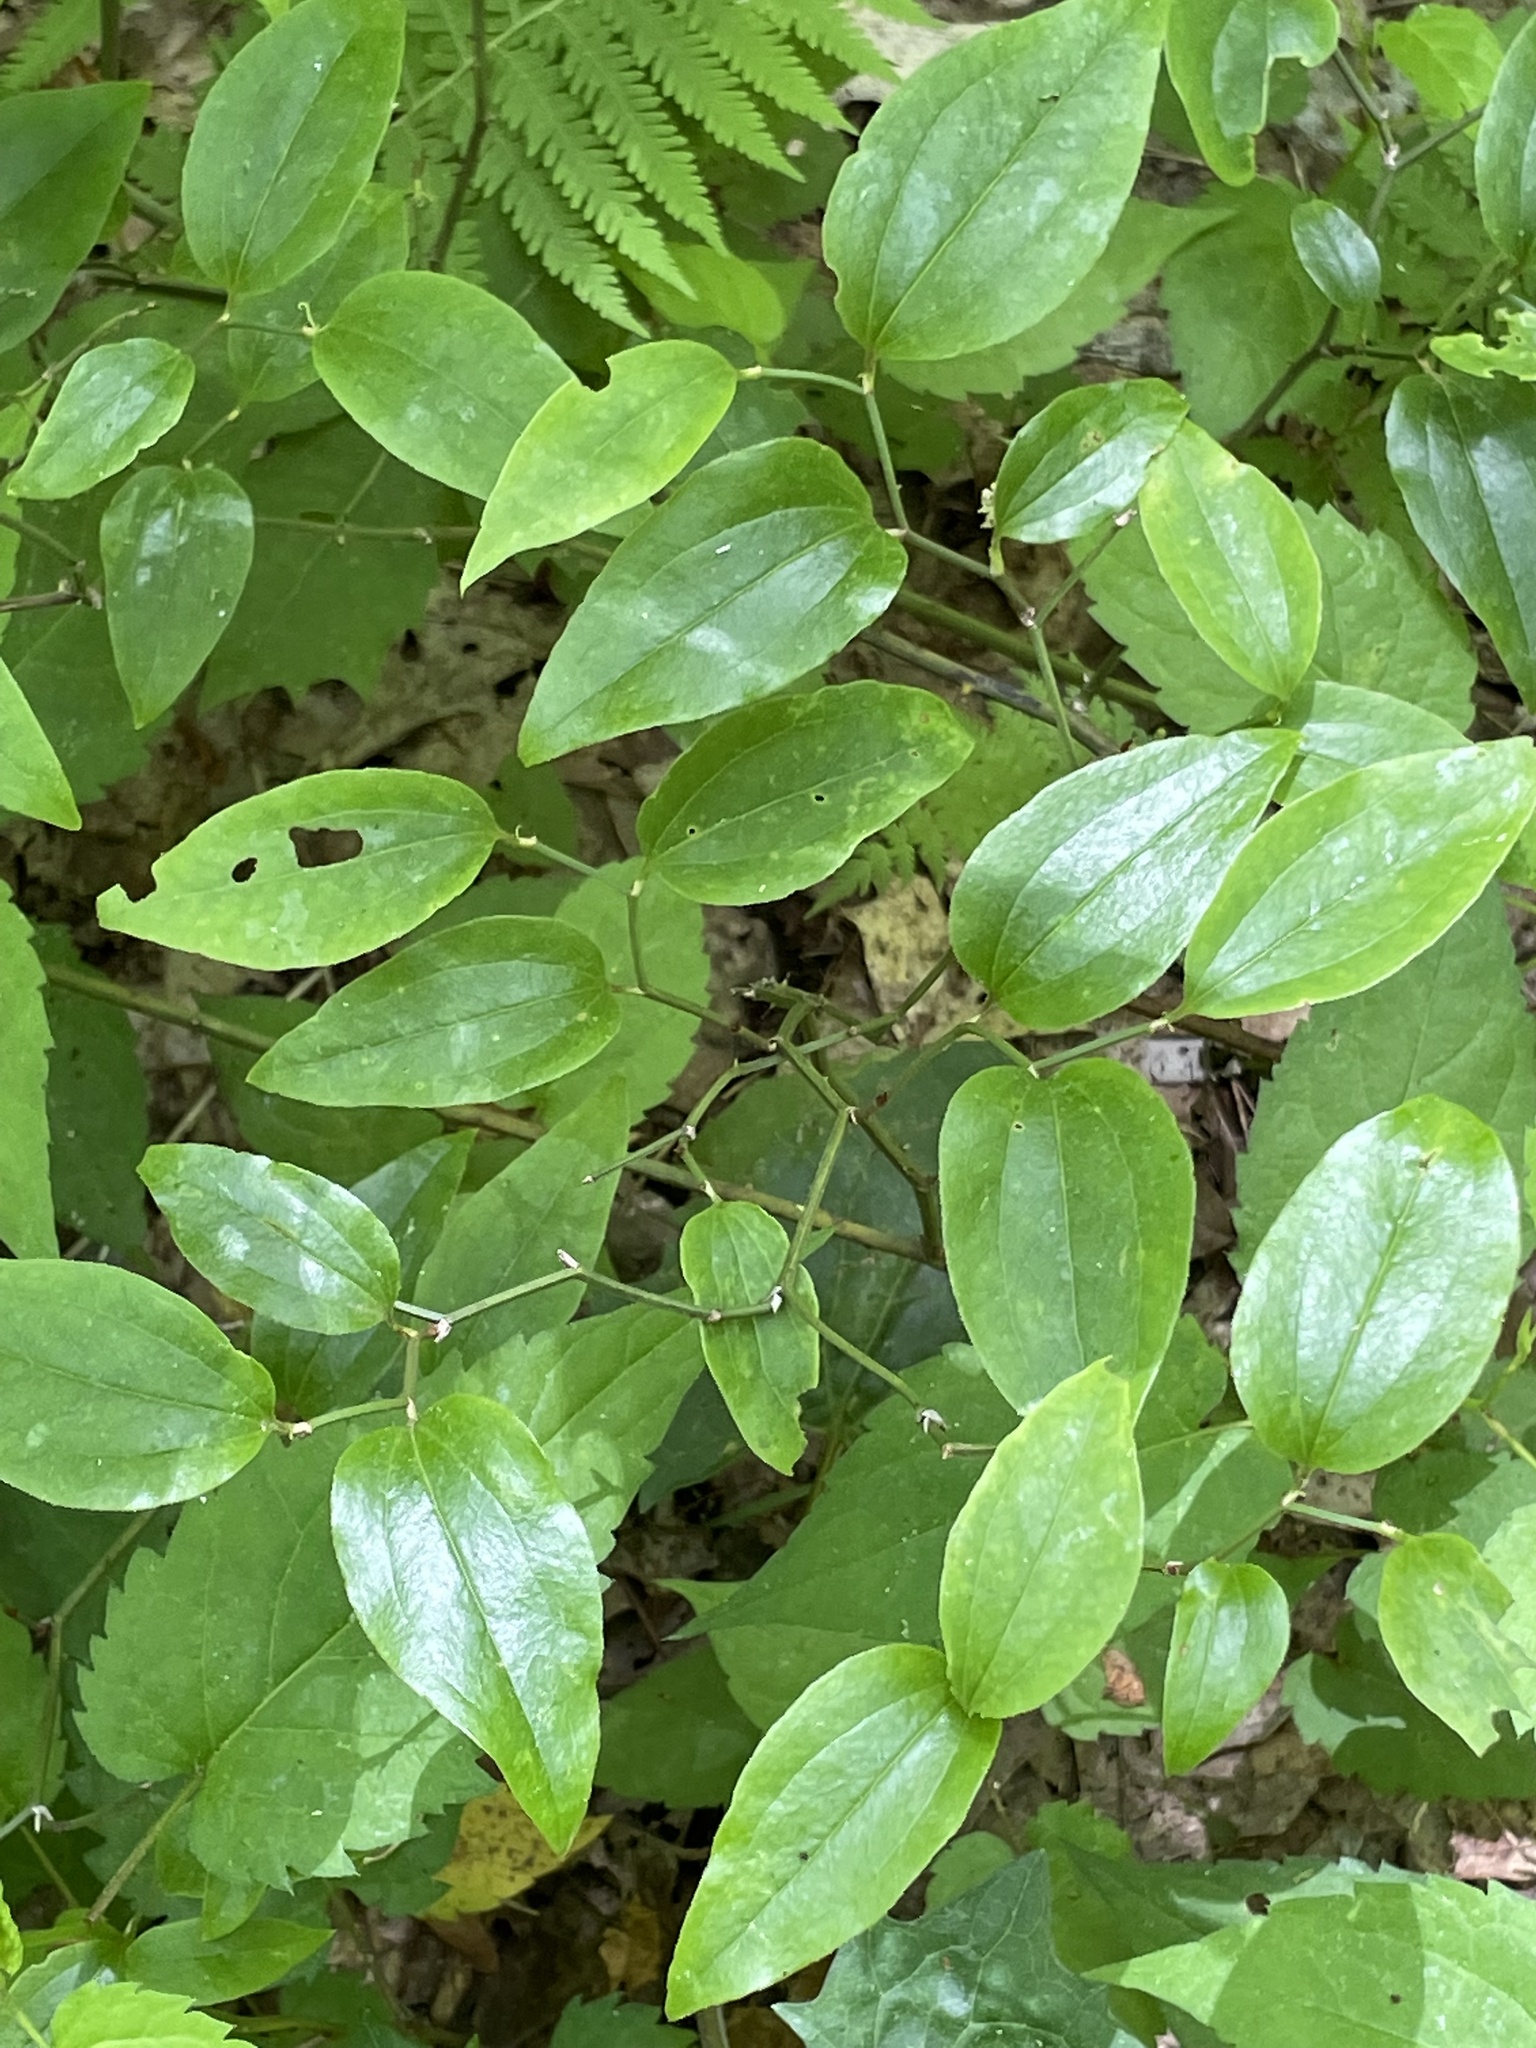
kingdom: Plantae
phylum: Tracheophyta
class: Liliopsida
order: Liliales
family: Smilacaceae
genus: Smilax
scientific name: Smilax rotundifolia
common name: Bullbriar
